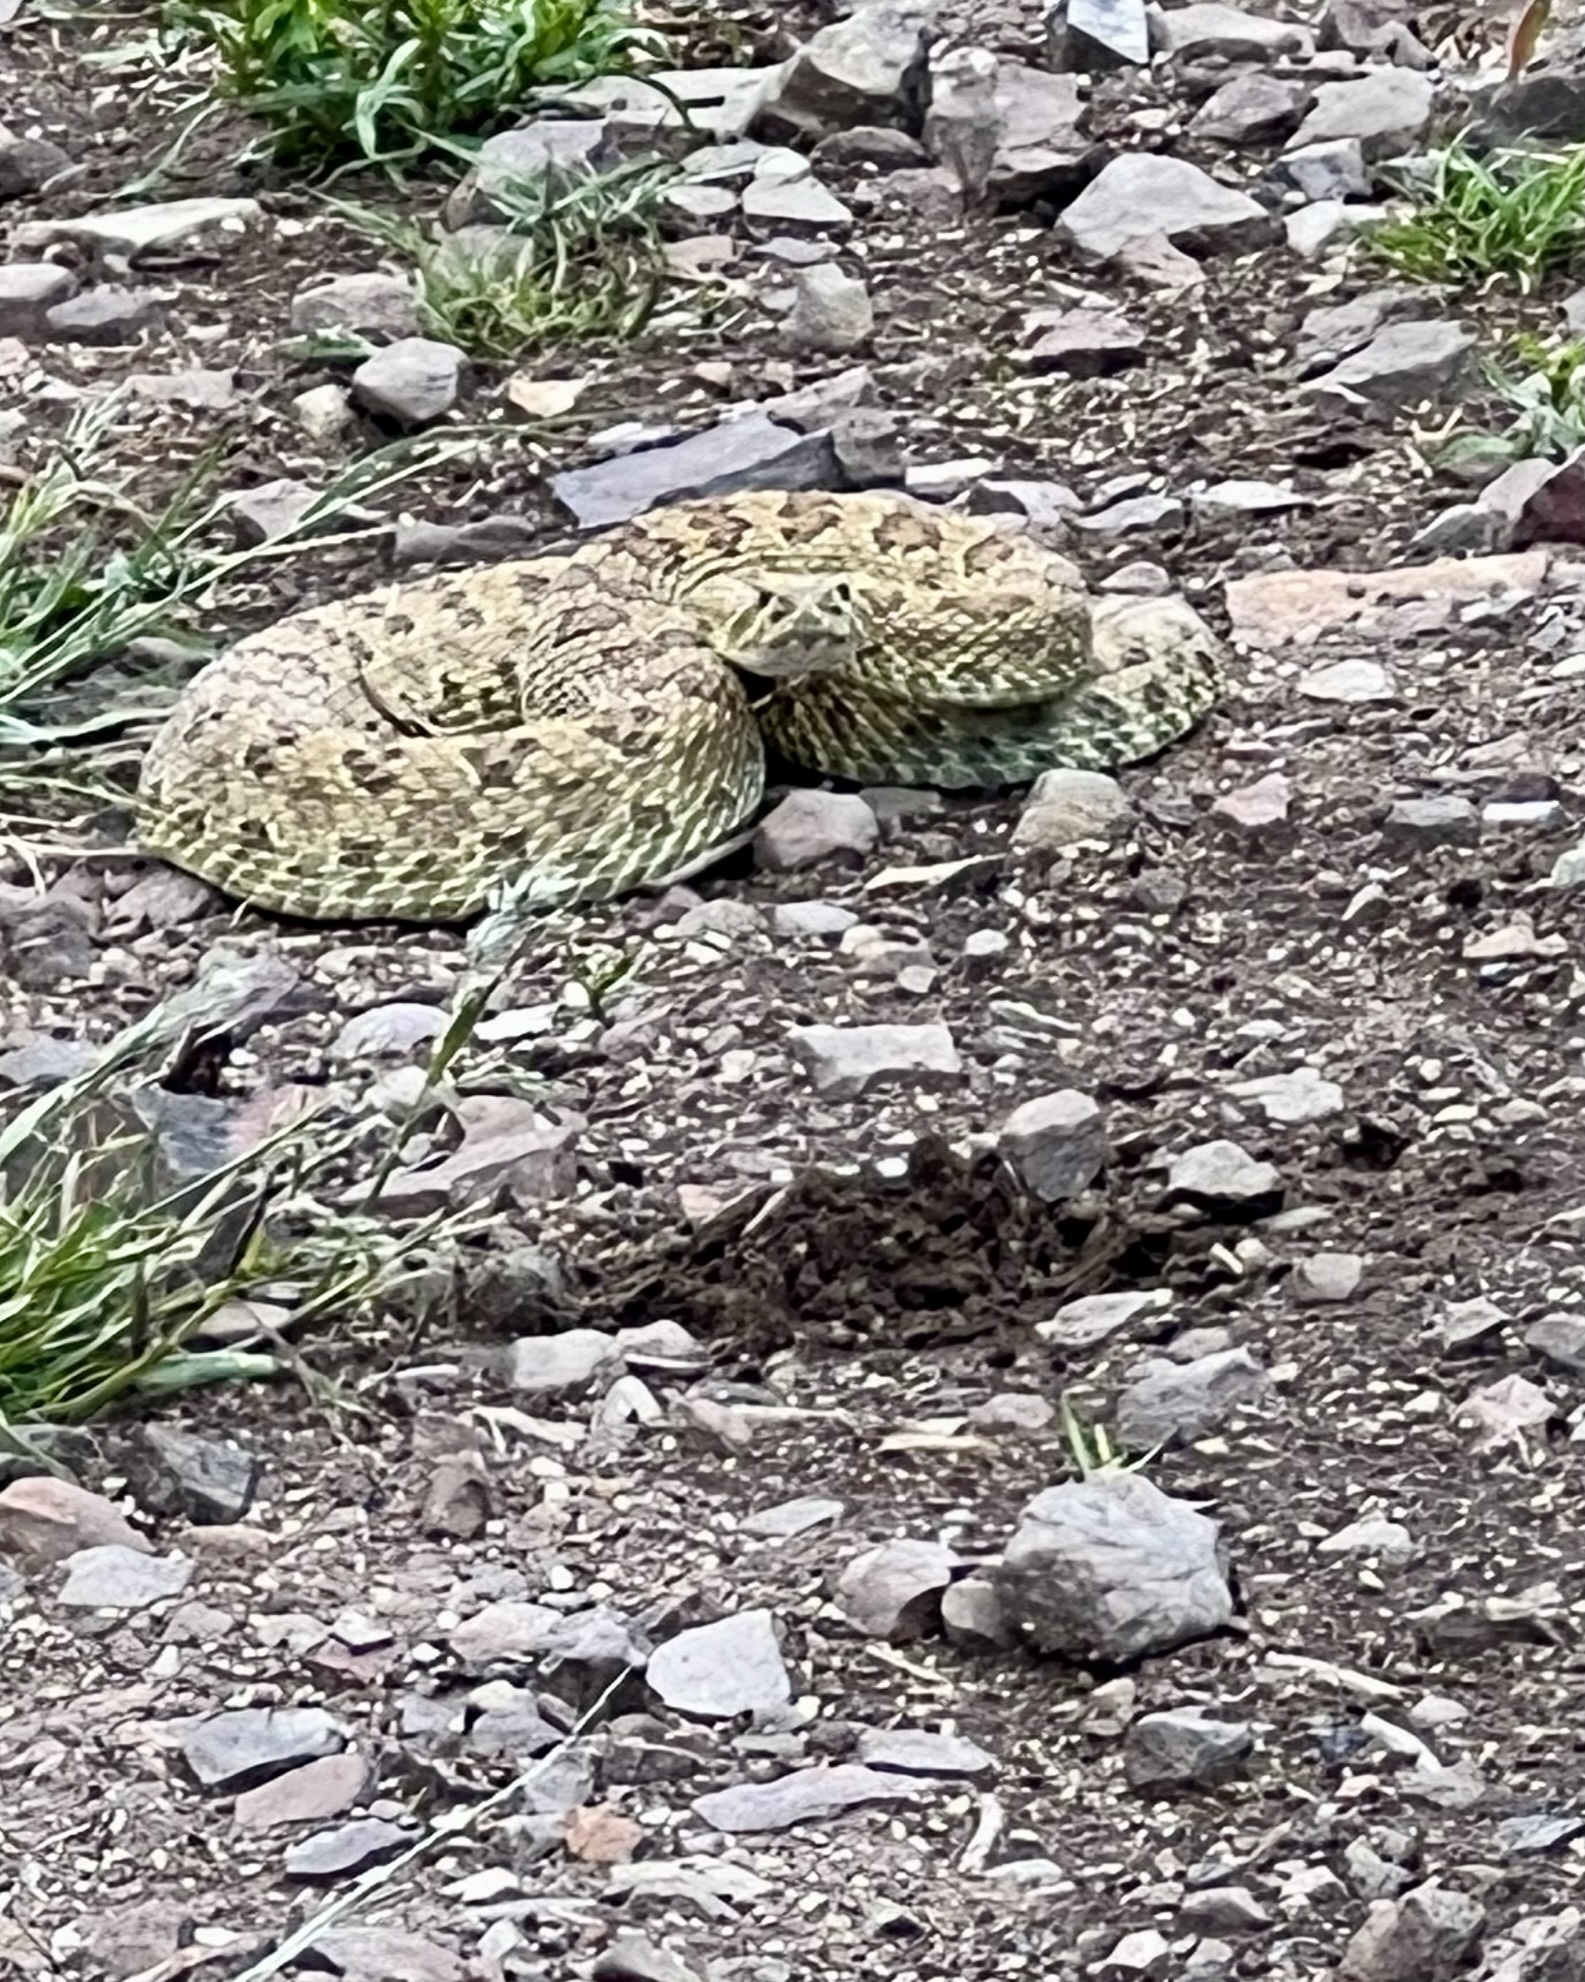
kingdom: Animalia
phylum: Chordata
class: Squamata
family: Viperidae
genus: Crotalus
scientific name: Crotalus viridis
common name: Prairie rattlesnake
